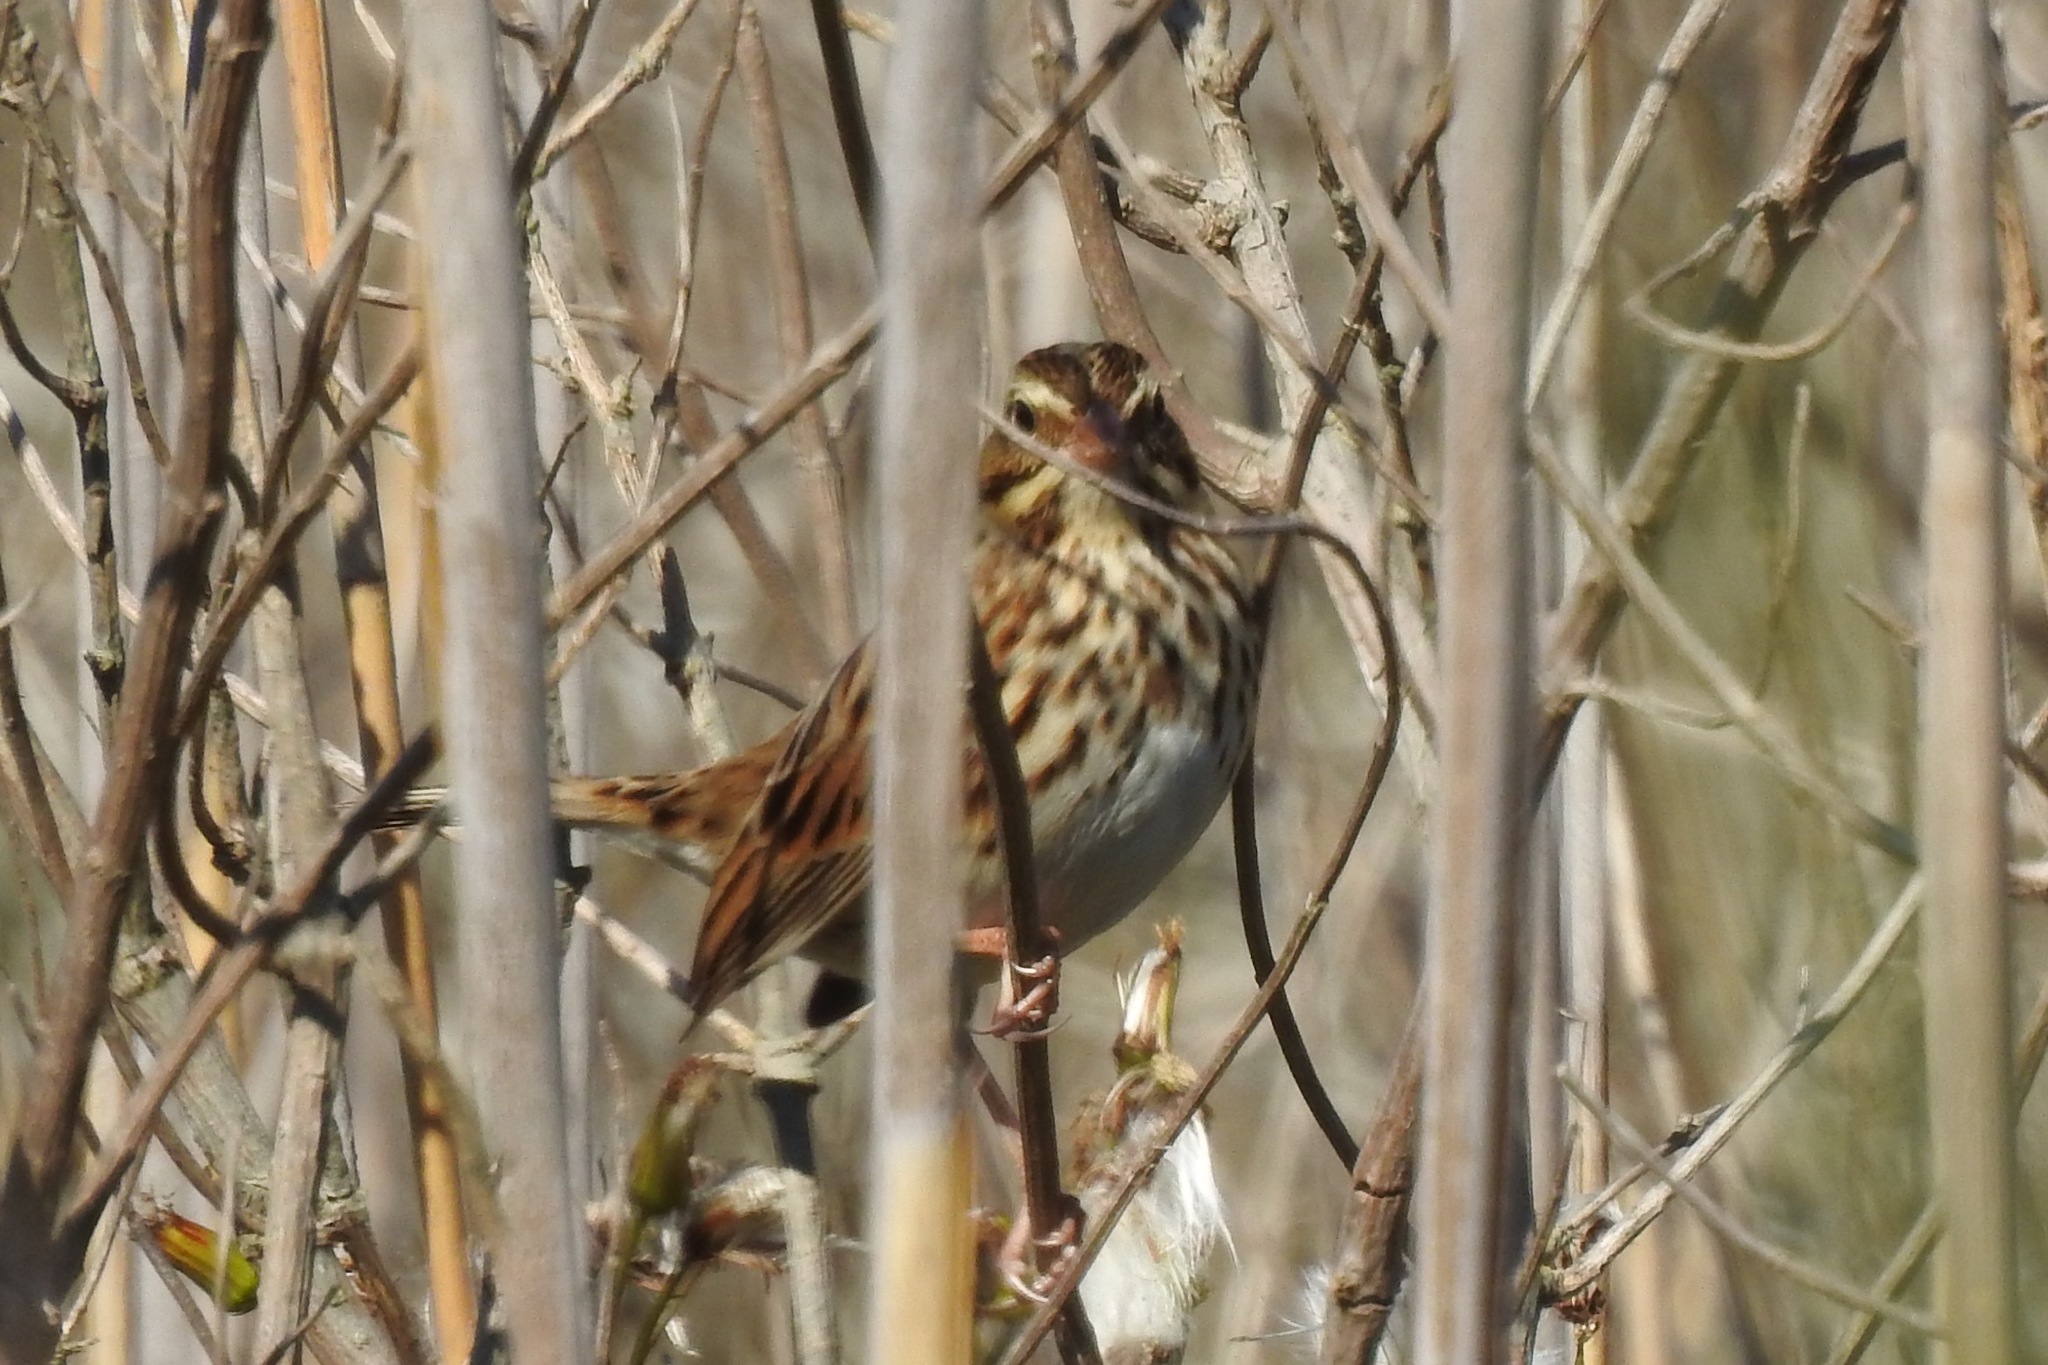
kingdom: Animalia
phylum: Chordata
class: Aves
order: Passeriformes
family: Passerellidae
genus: Passerculus
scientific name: Passerculus sandwichensis
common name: Savannah sparrow
